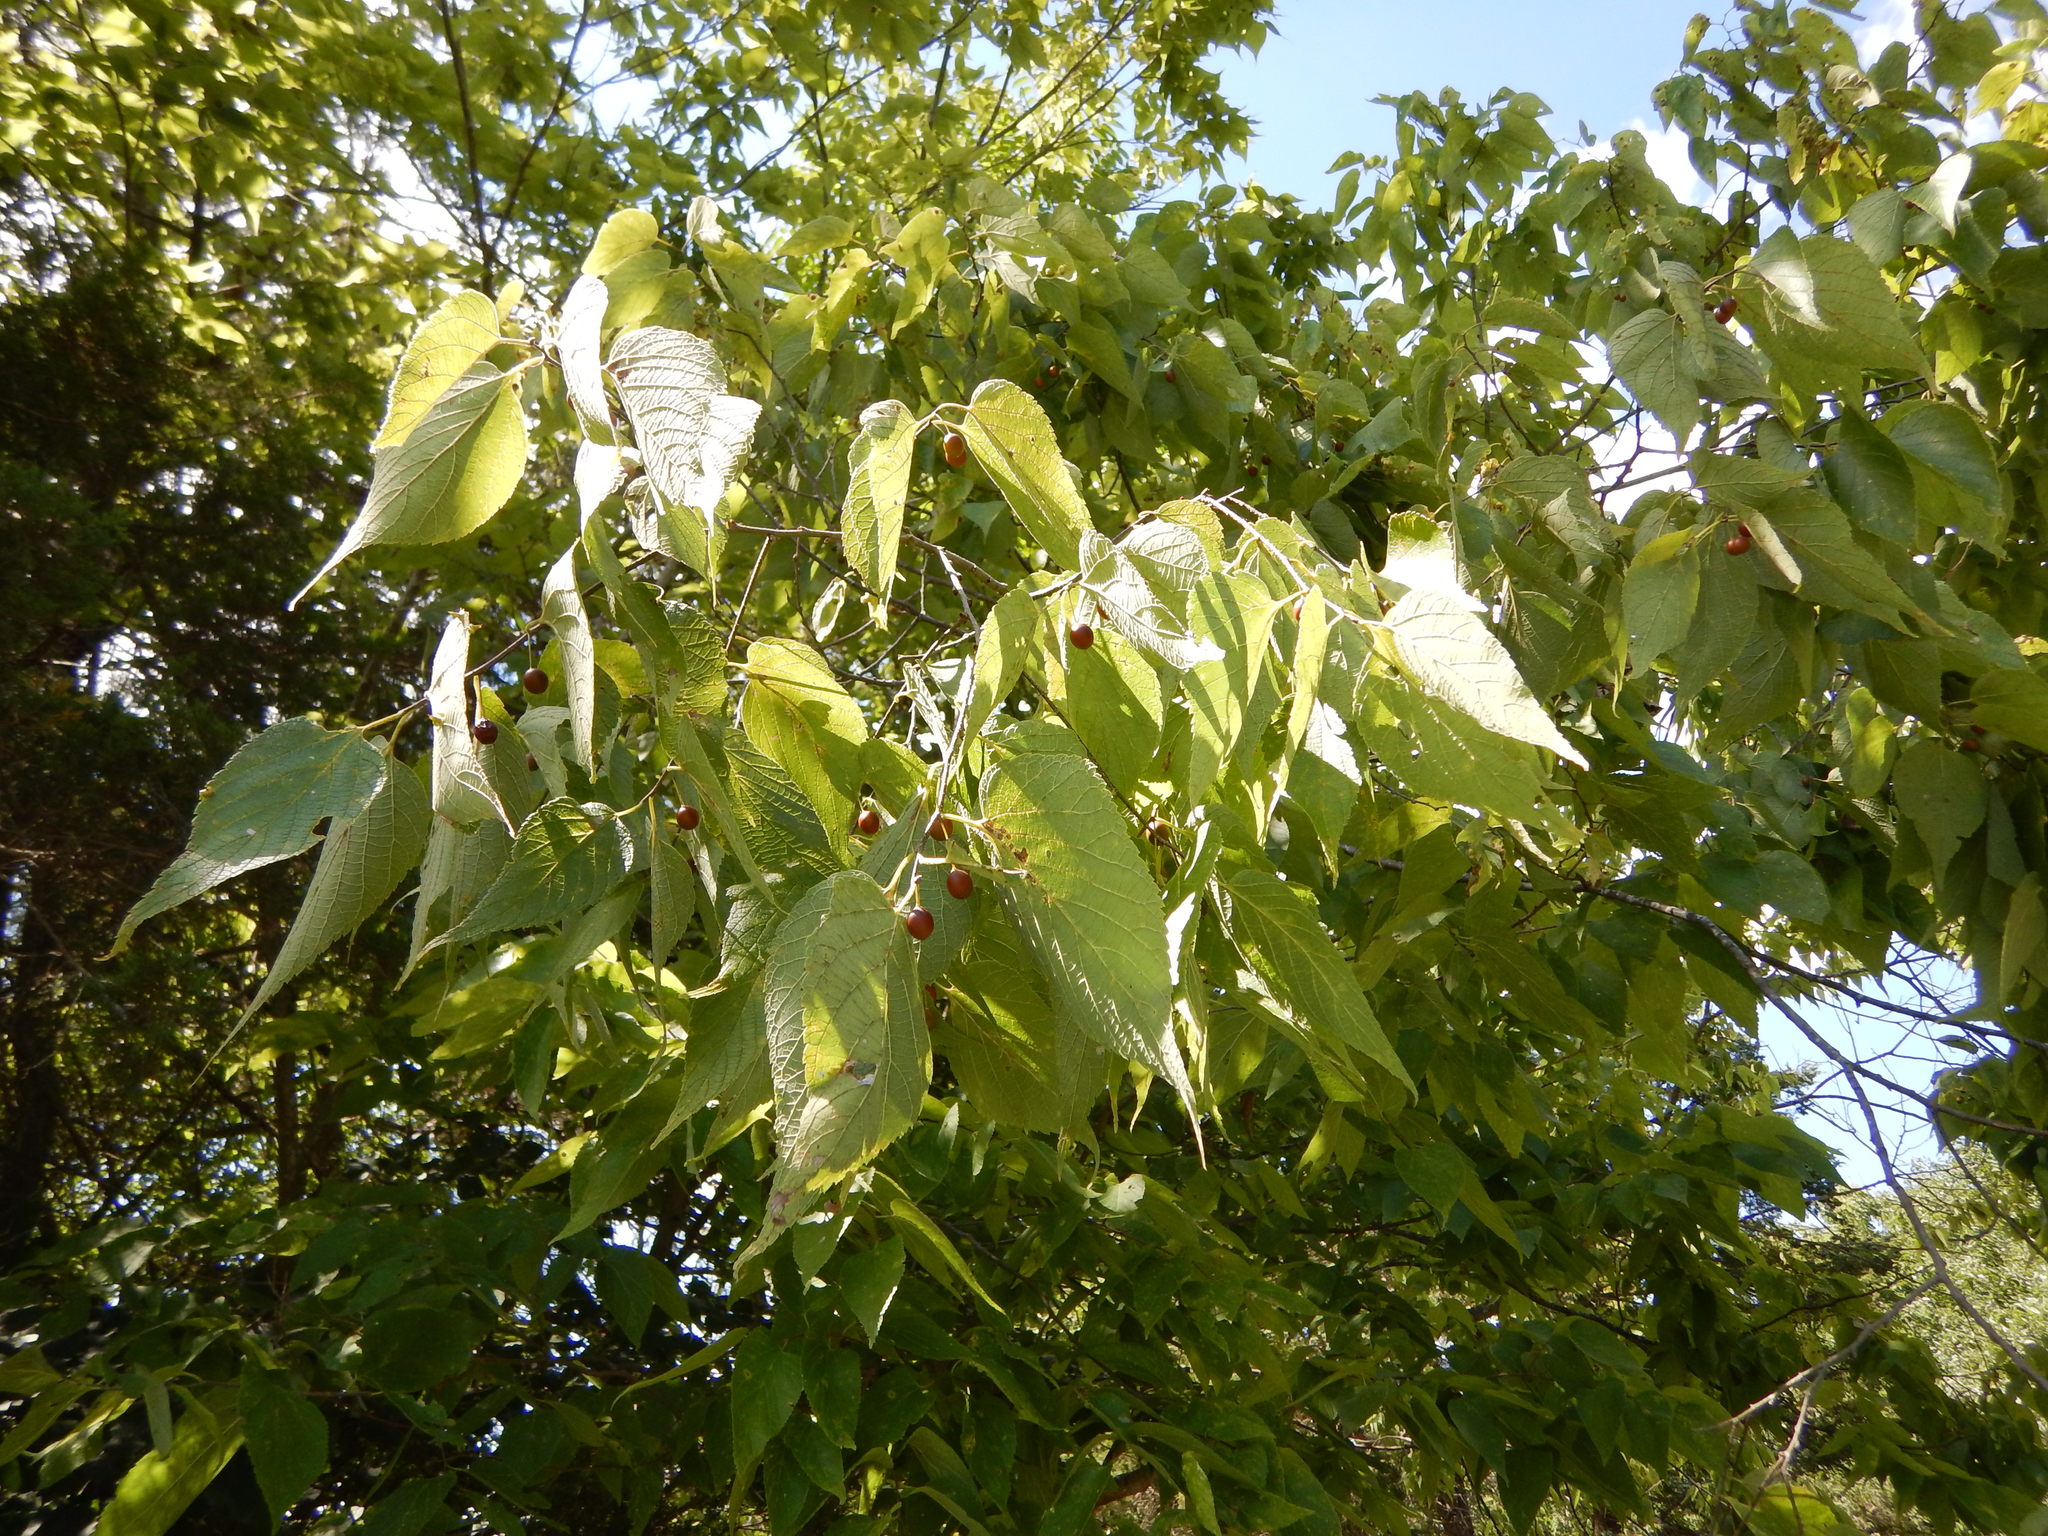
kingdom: Plantae
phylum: Tracheophyta
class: Magnoliopsida
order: Rosales
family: Cannabaceae
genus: Celtis
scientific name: Celtis occidentalis
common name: Common hackberry
